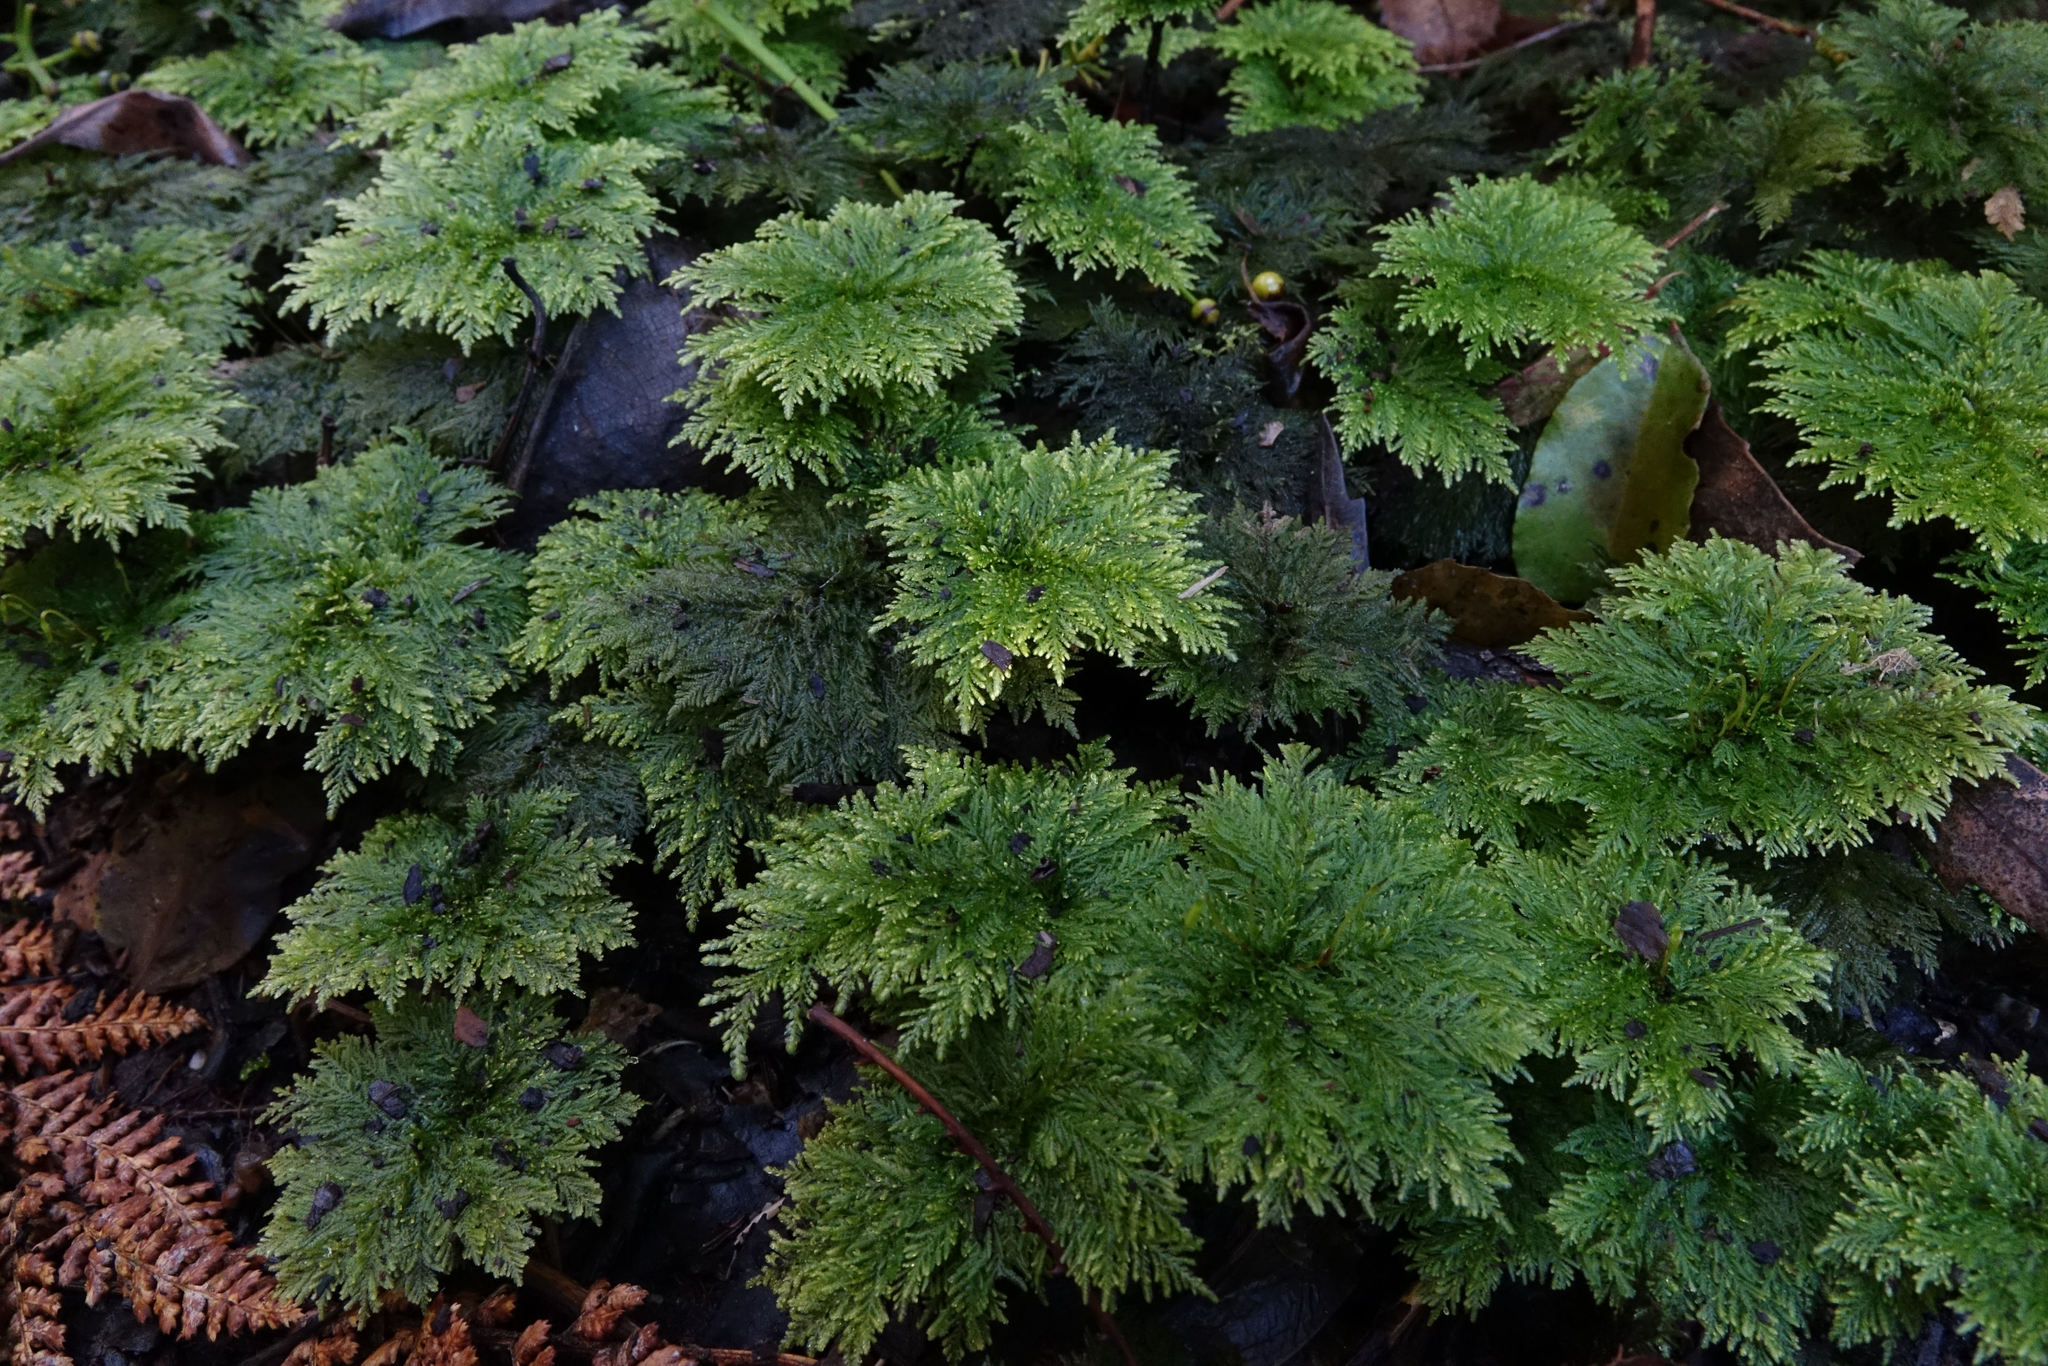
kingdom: Plantae
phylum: Bryophyta
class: Bryopsida
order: Hypopterygiales
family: Hypopterygiaceae
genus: Dendrohypopterygium
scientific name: Dendrohypopterygium filiculiforme
